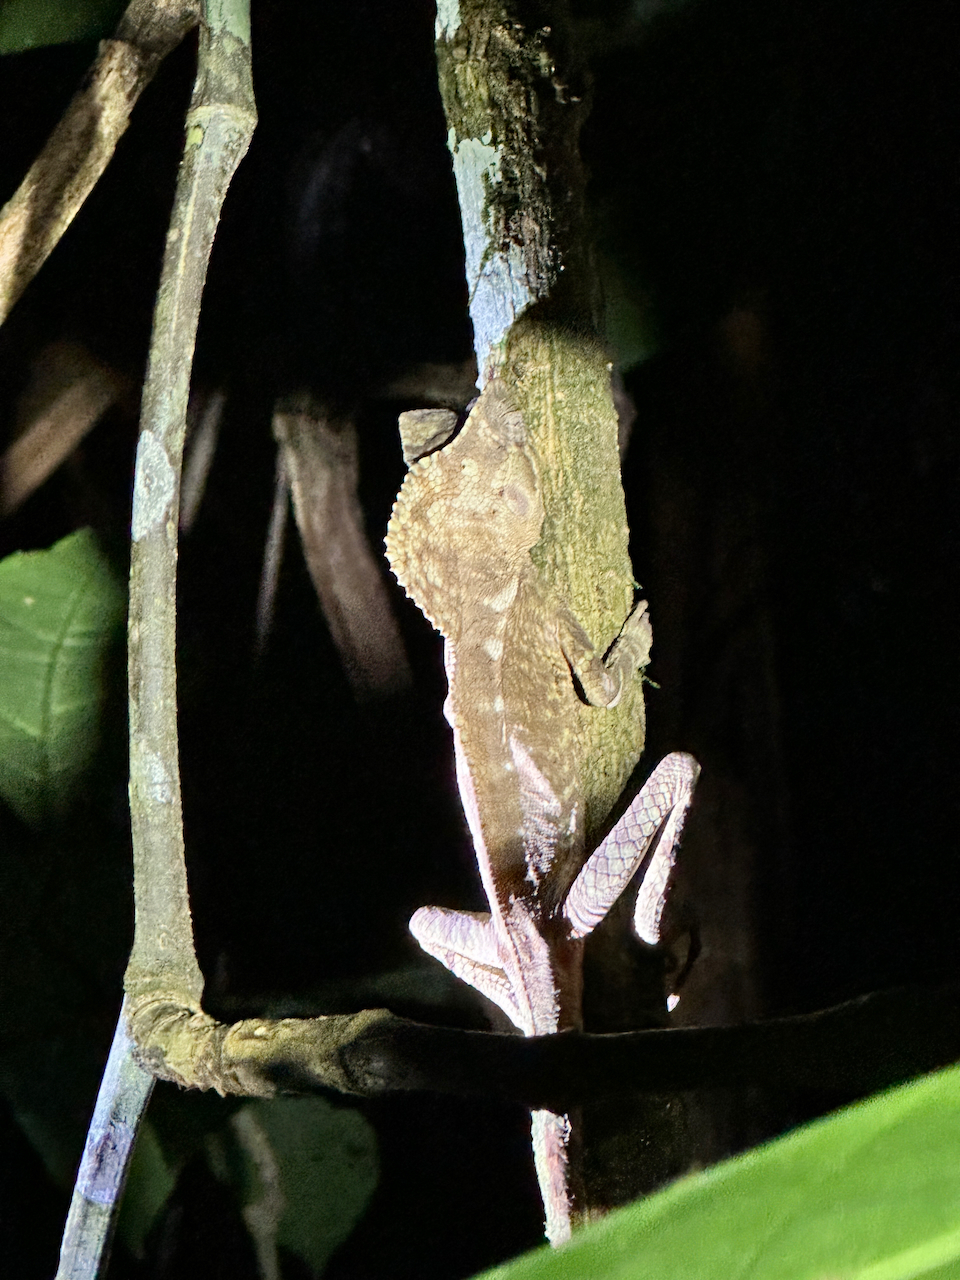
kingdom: Animalia
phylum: Chordata
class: Squamata
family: Corytophanidae
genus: Corytophanes
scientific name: Corytophanes cristatus
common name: Smooth helmeted iguana
